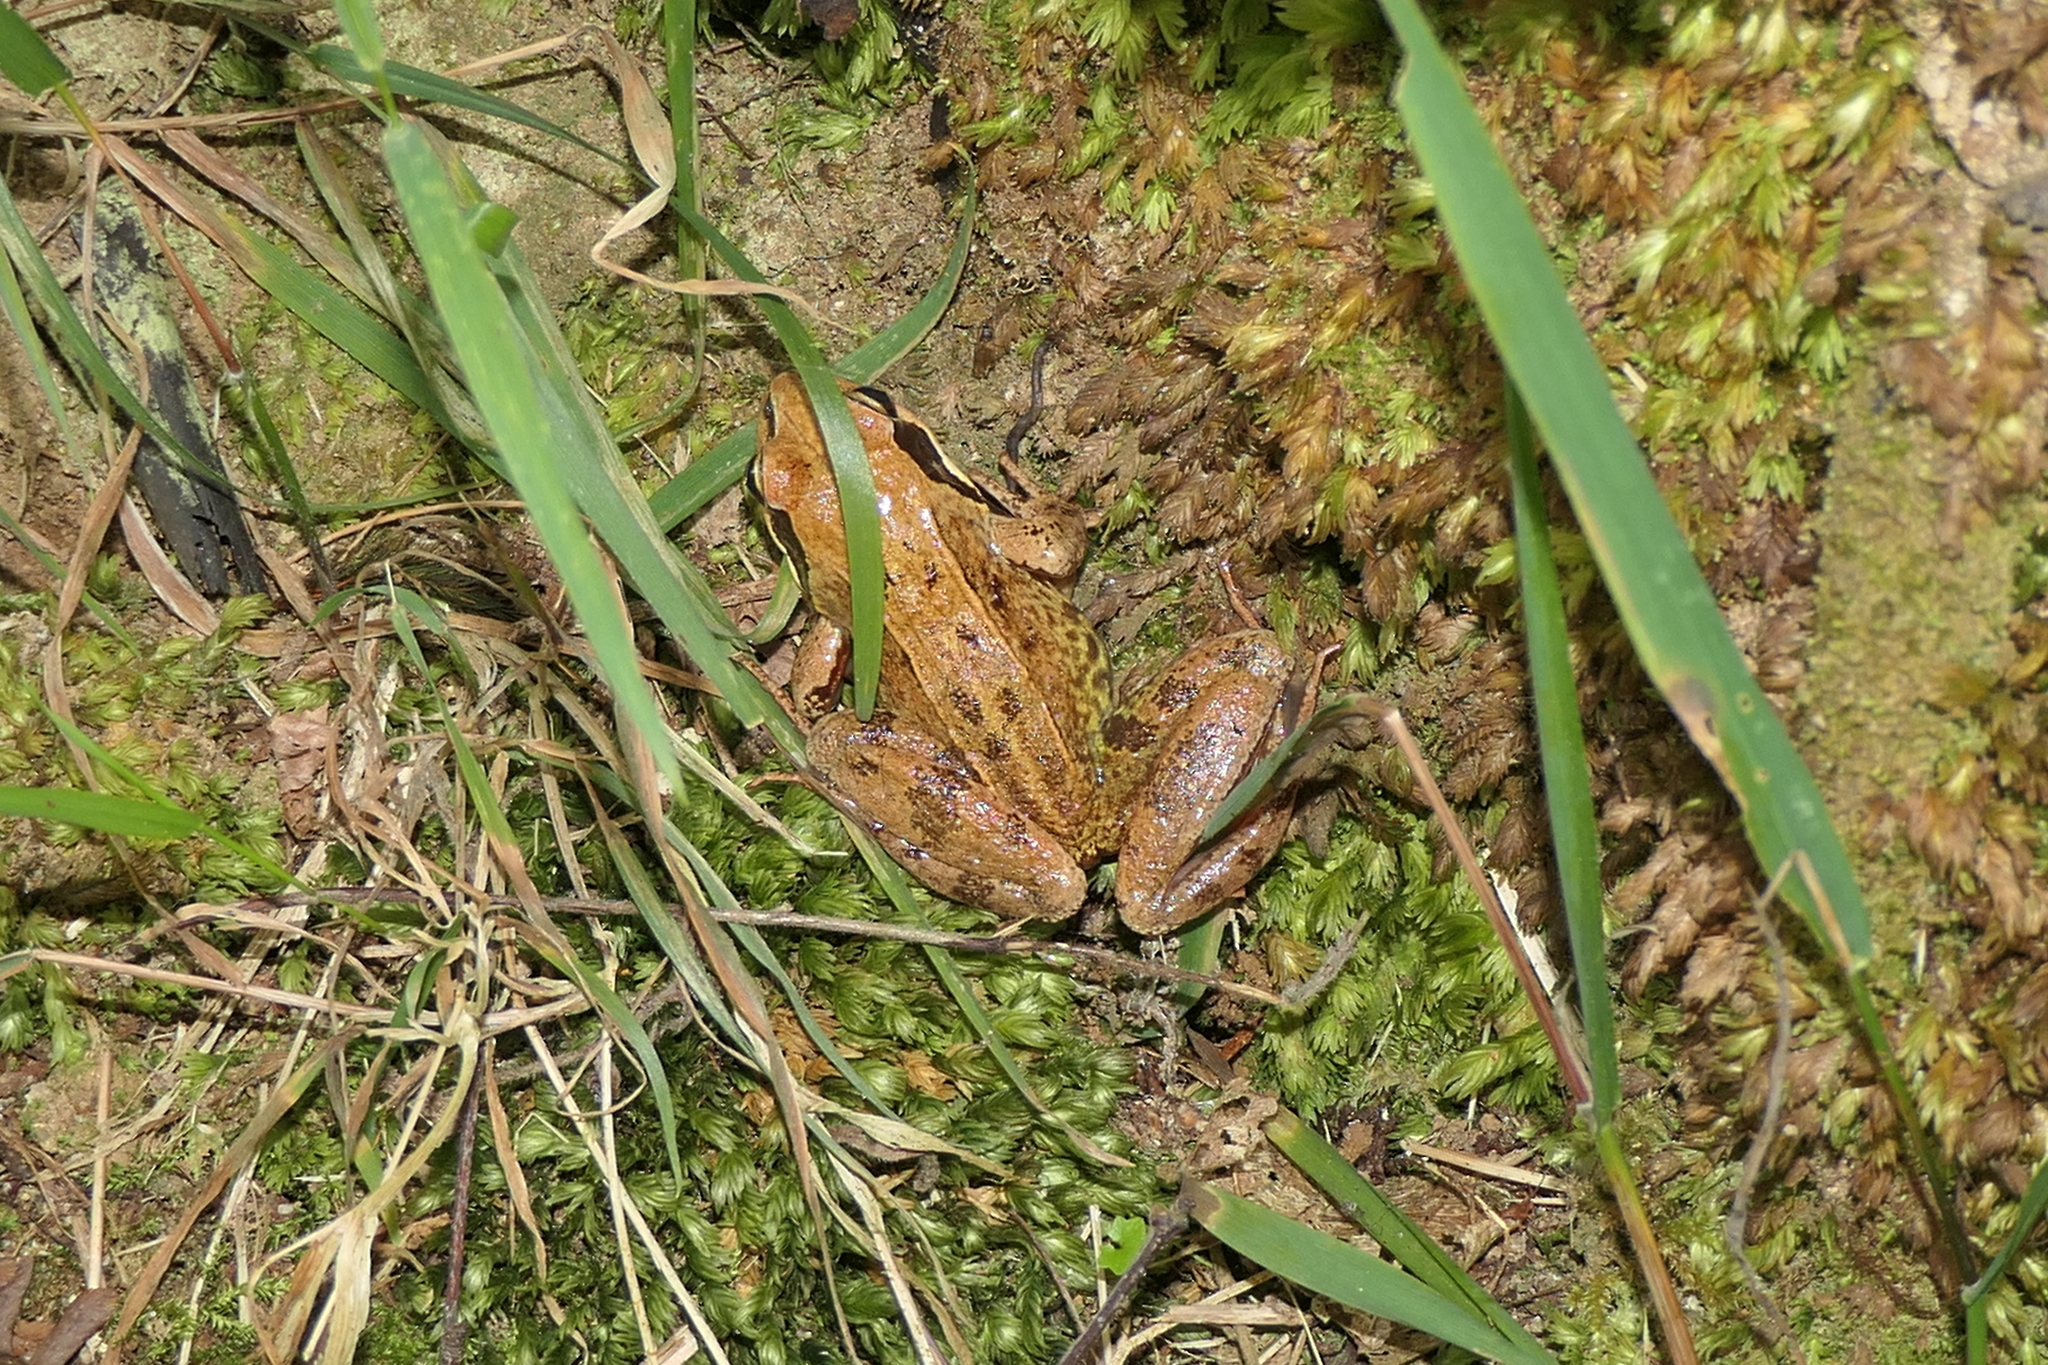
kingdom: Animalia
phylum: Chordata
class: Amphibia
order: Anura
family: Ranidae
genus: Rana
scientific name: Rana temporaria
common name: Common frog
